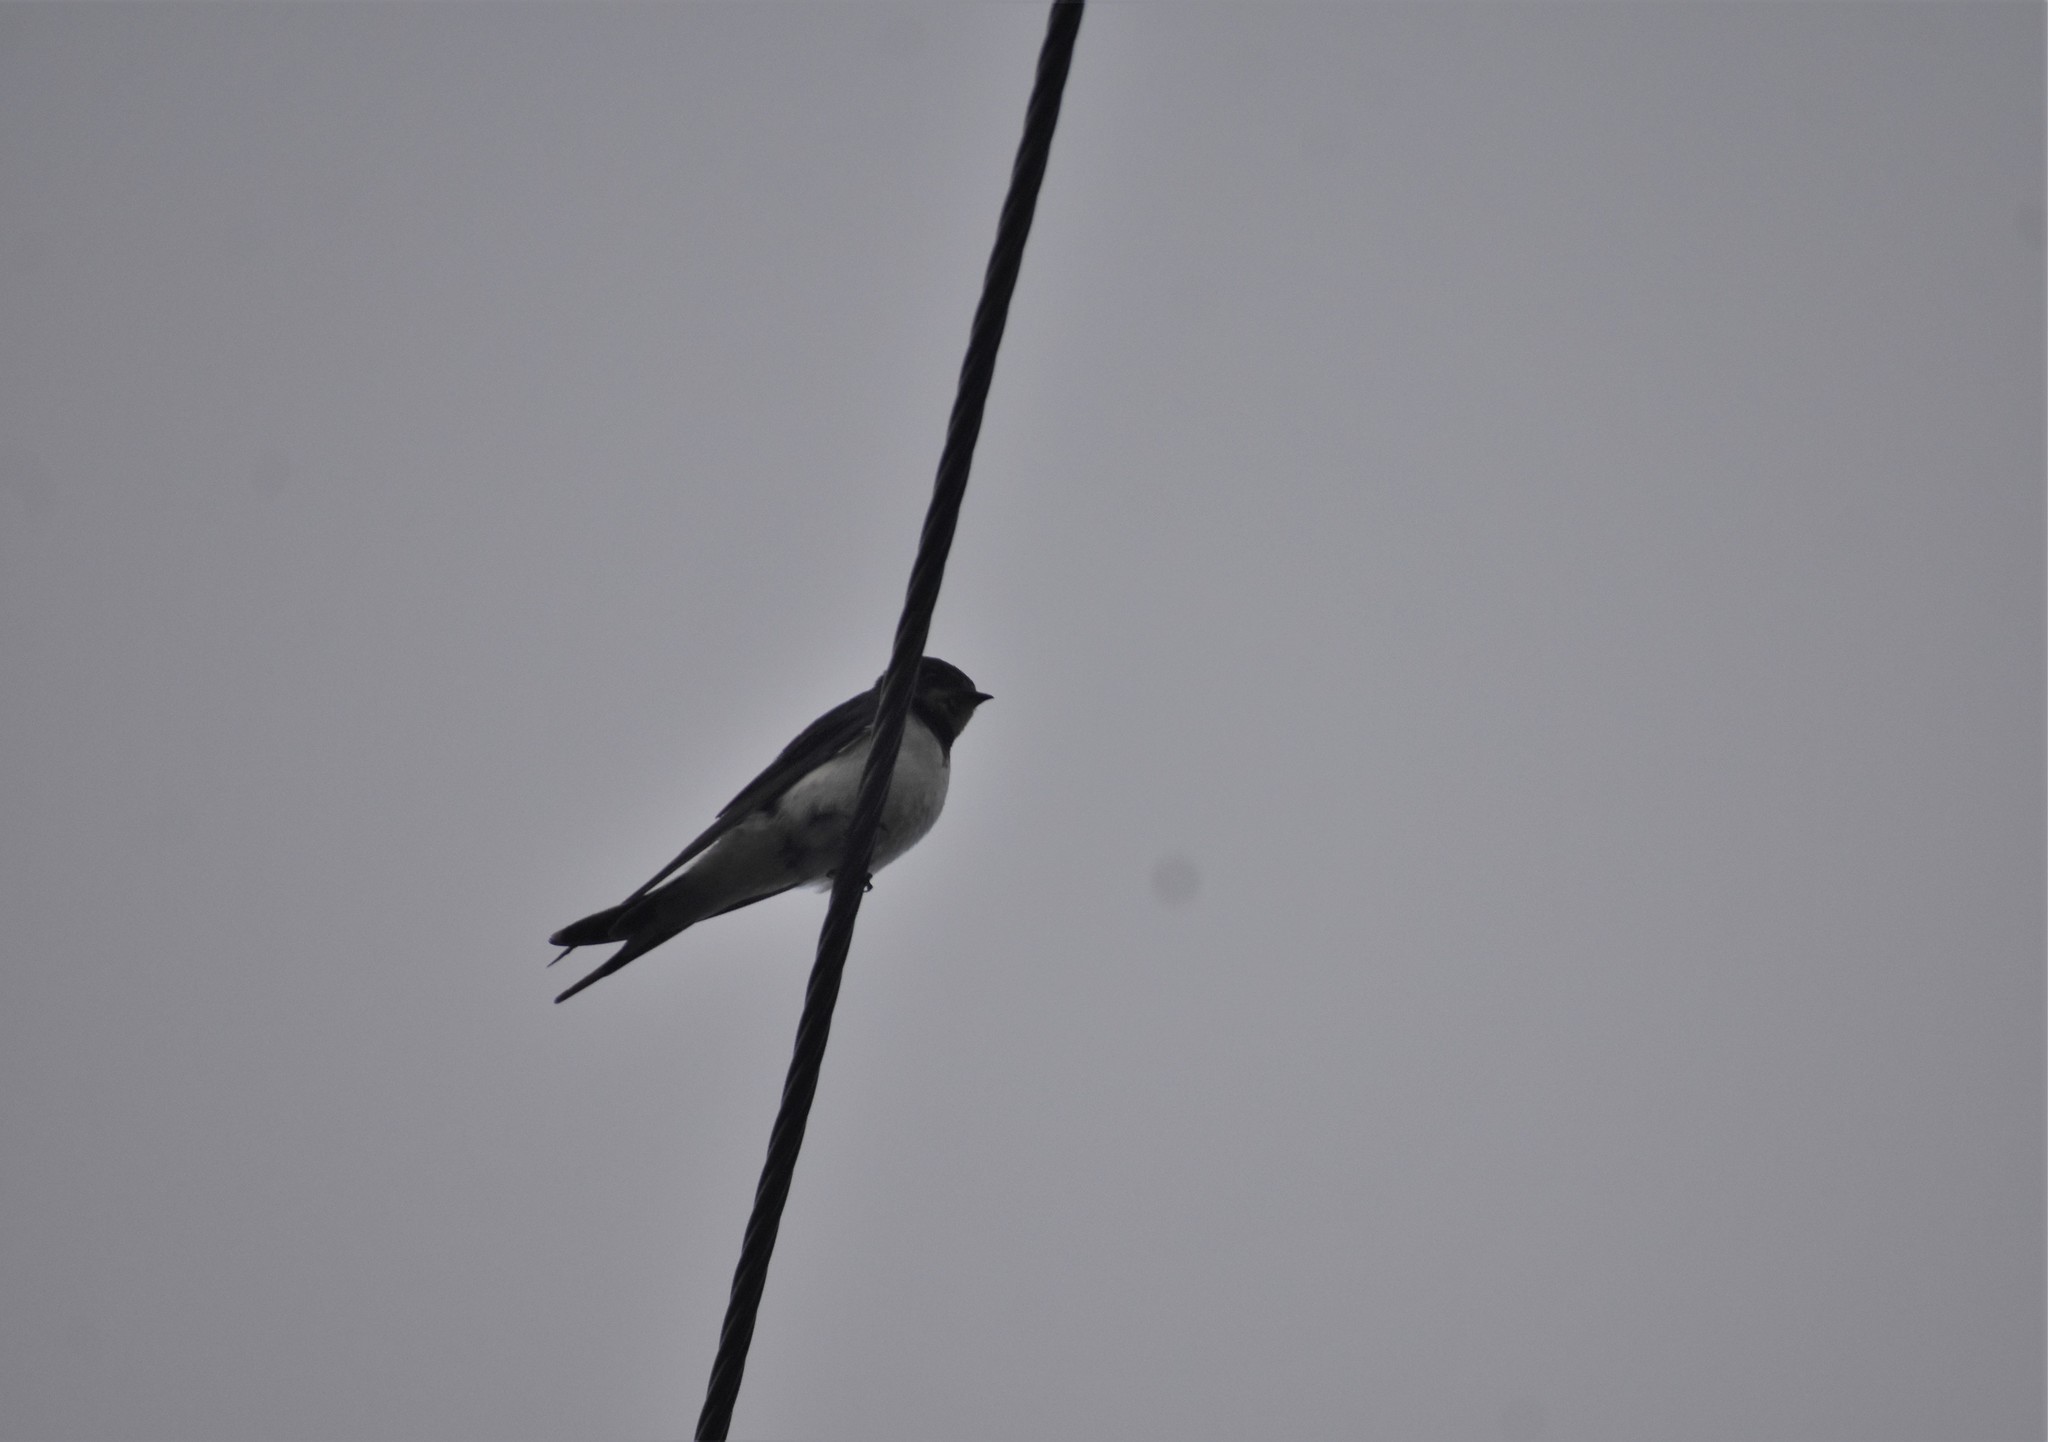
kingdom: Animalia
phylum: Chordata
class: Aves
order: Passeriformes
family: Hirundinidae
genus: Hirundo
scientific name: Hirundo rustica
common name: Barn swallow
